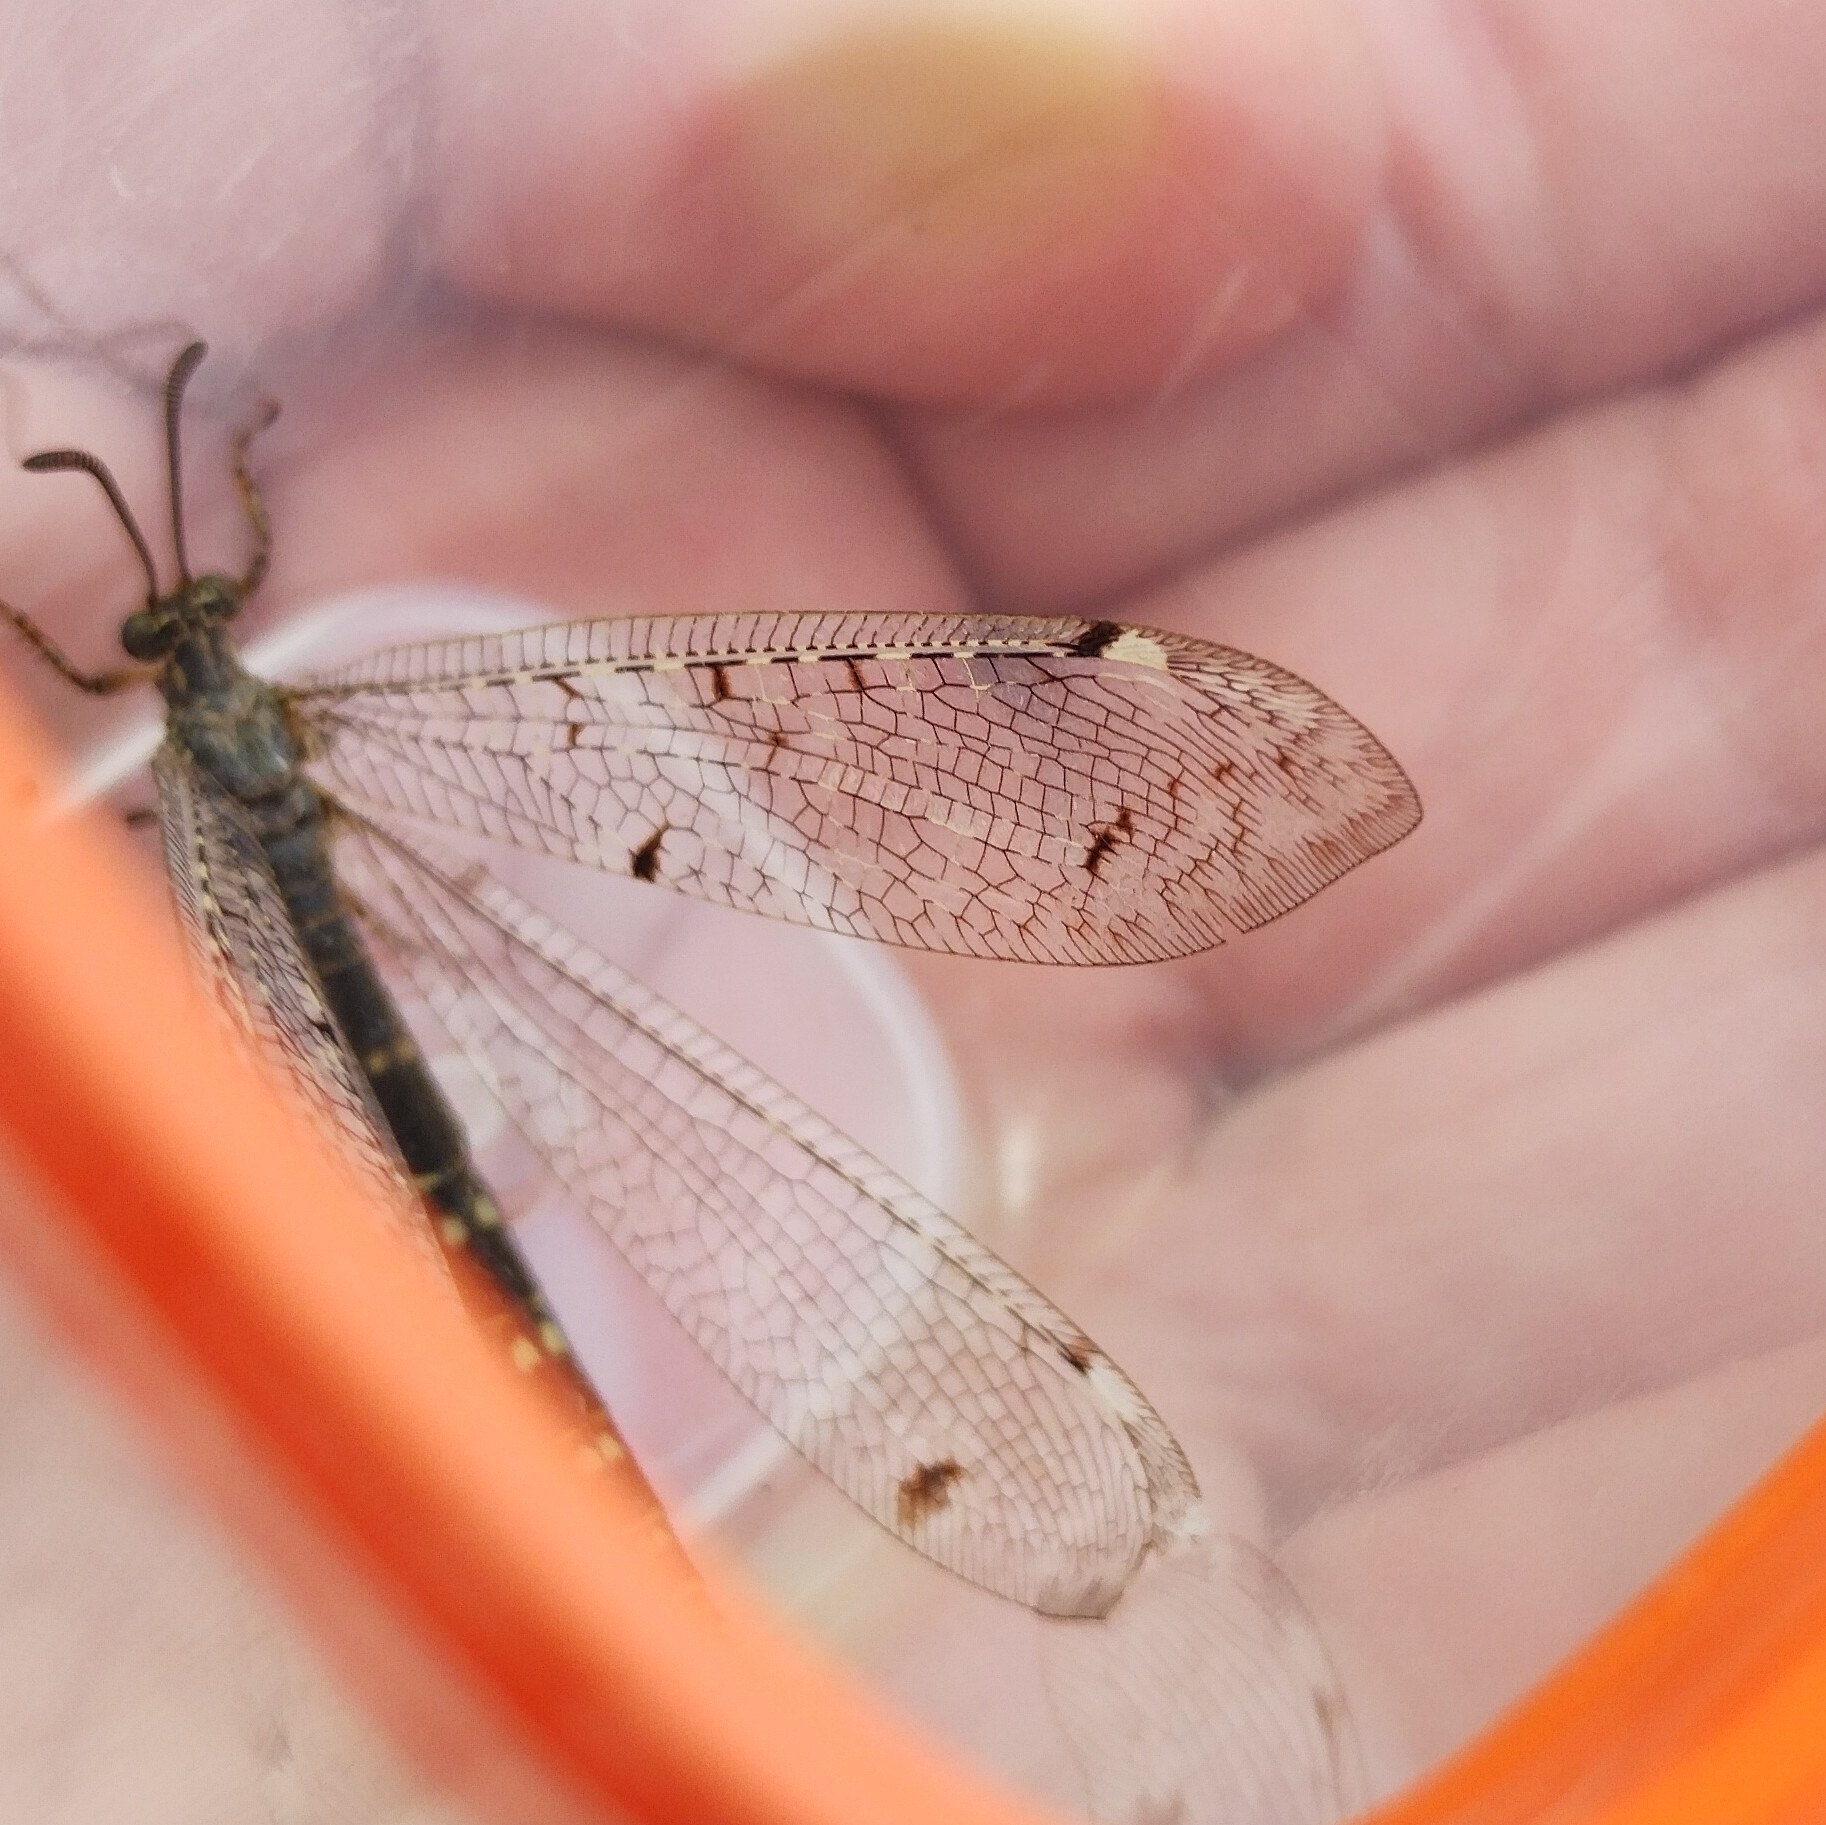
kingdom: Animalia
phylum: Arthropoda
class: Insecta
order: Neuroptera
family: Myrmeleontidae
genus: Distoleon
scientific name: Distoleon tetragrammicus
